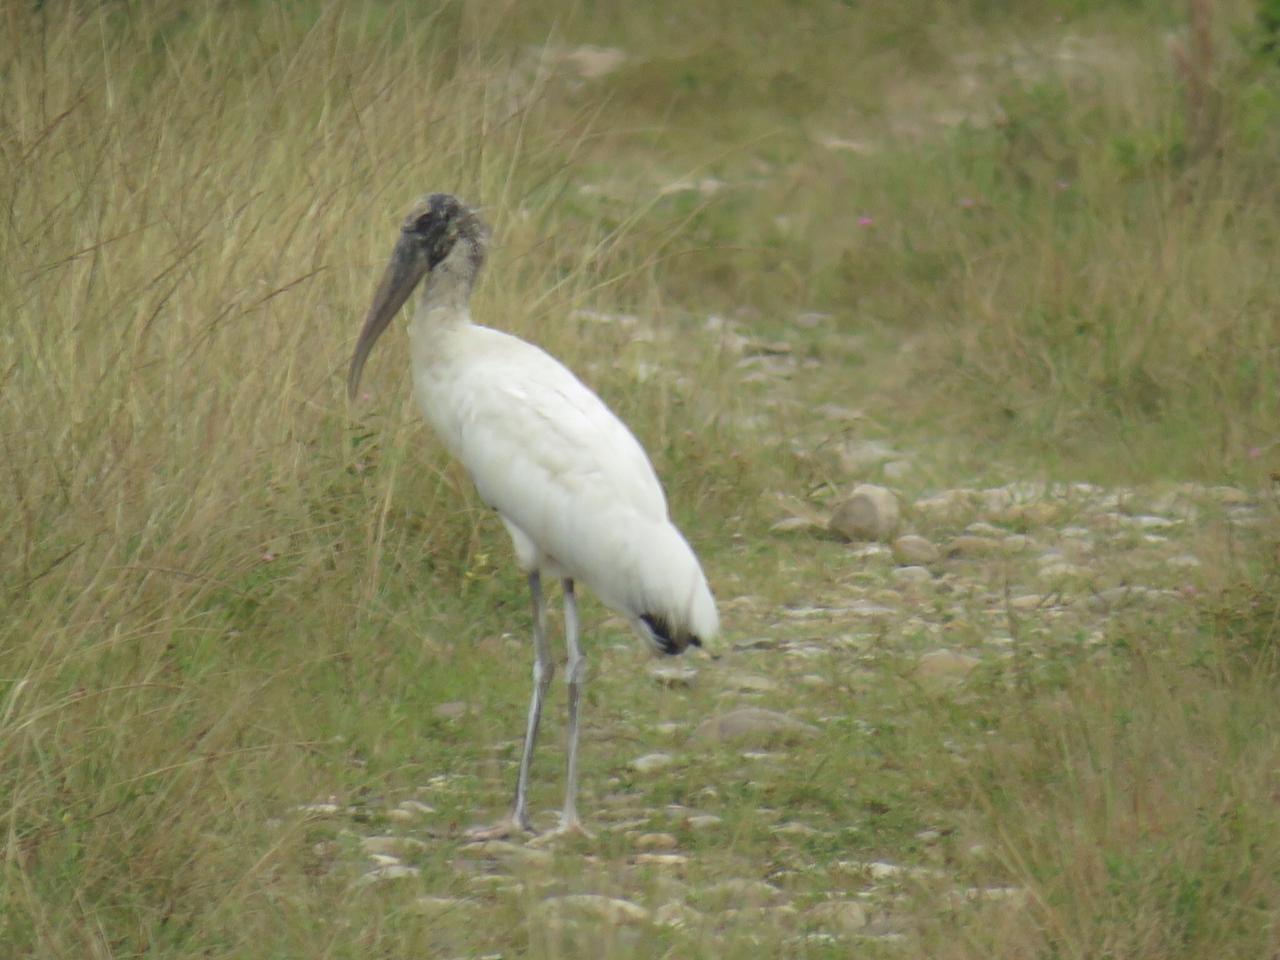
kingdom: Animalia
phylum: Chordata
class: Aves
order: Ciconiiformes
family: Ciconiidae
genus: Mycteria
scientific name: Mycteria americana
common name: Wood stork
